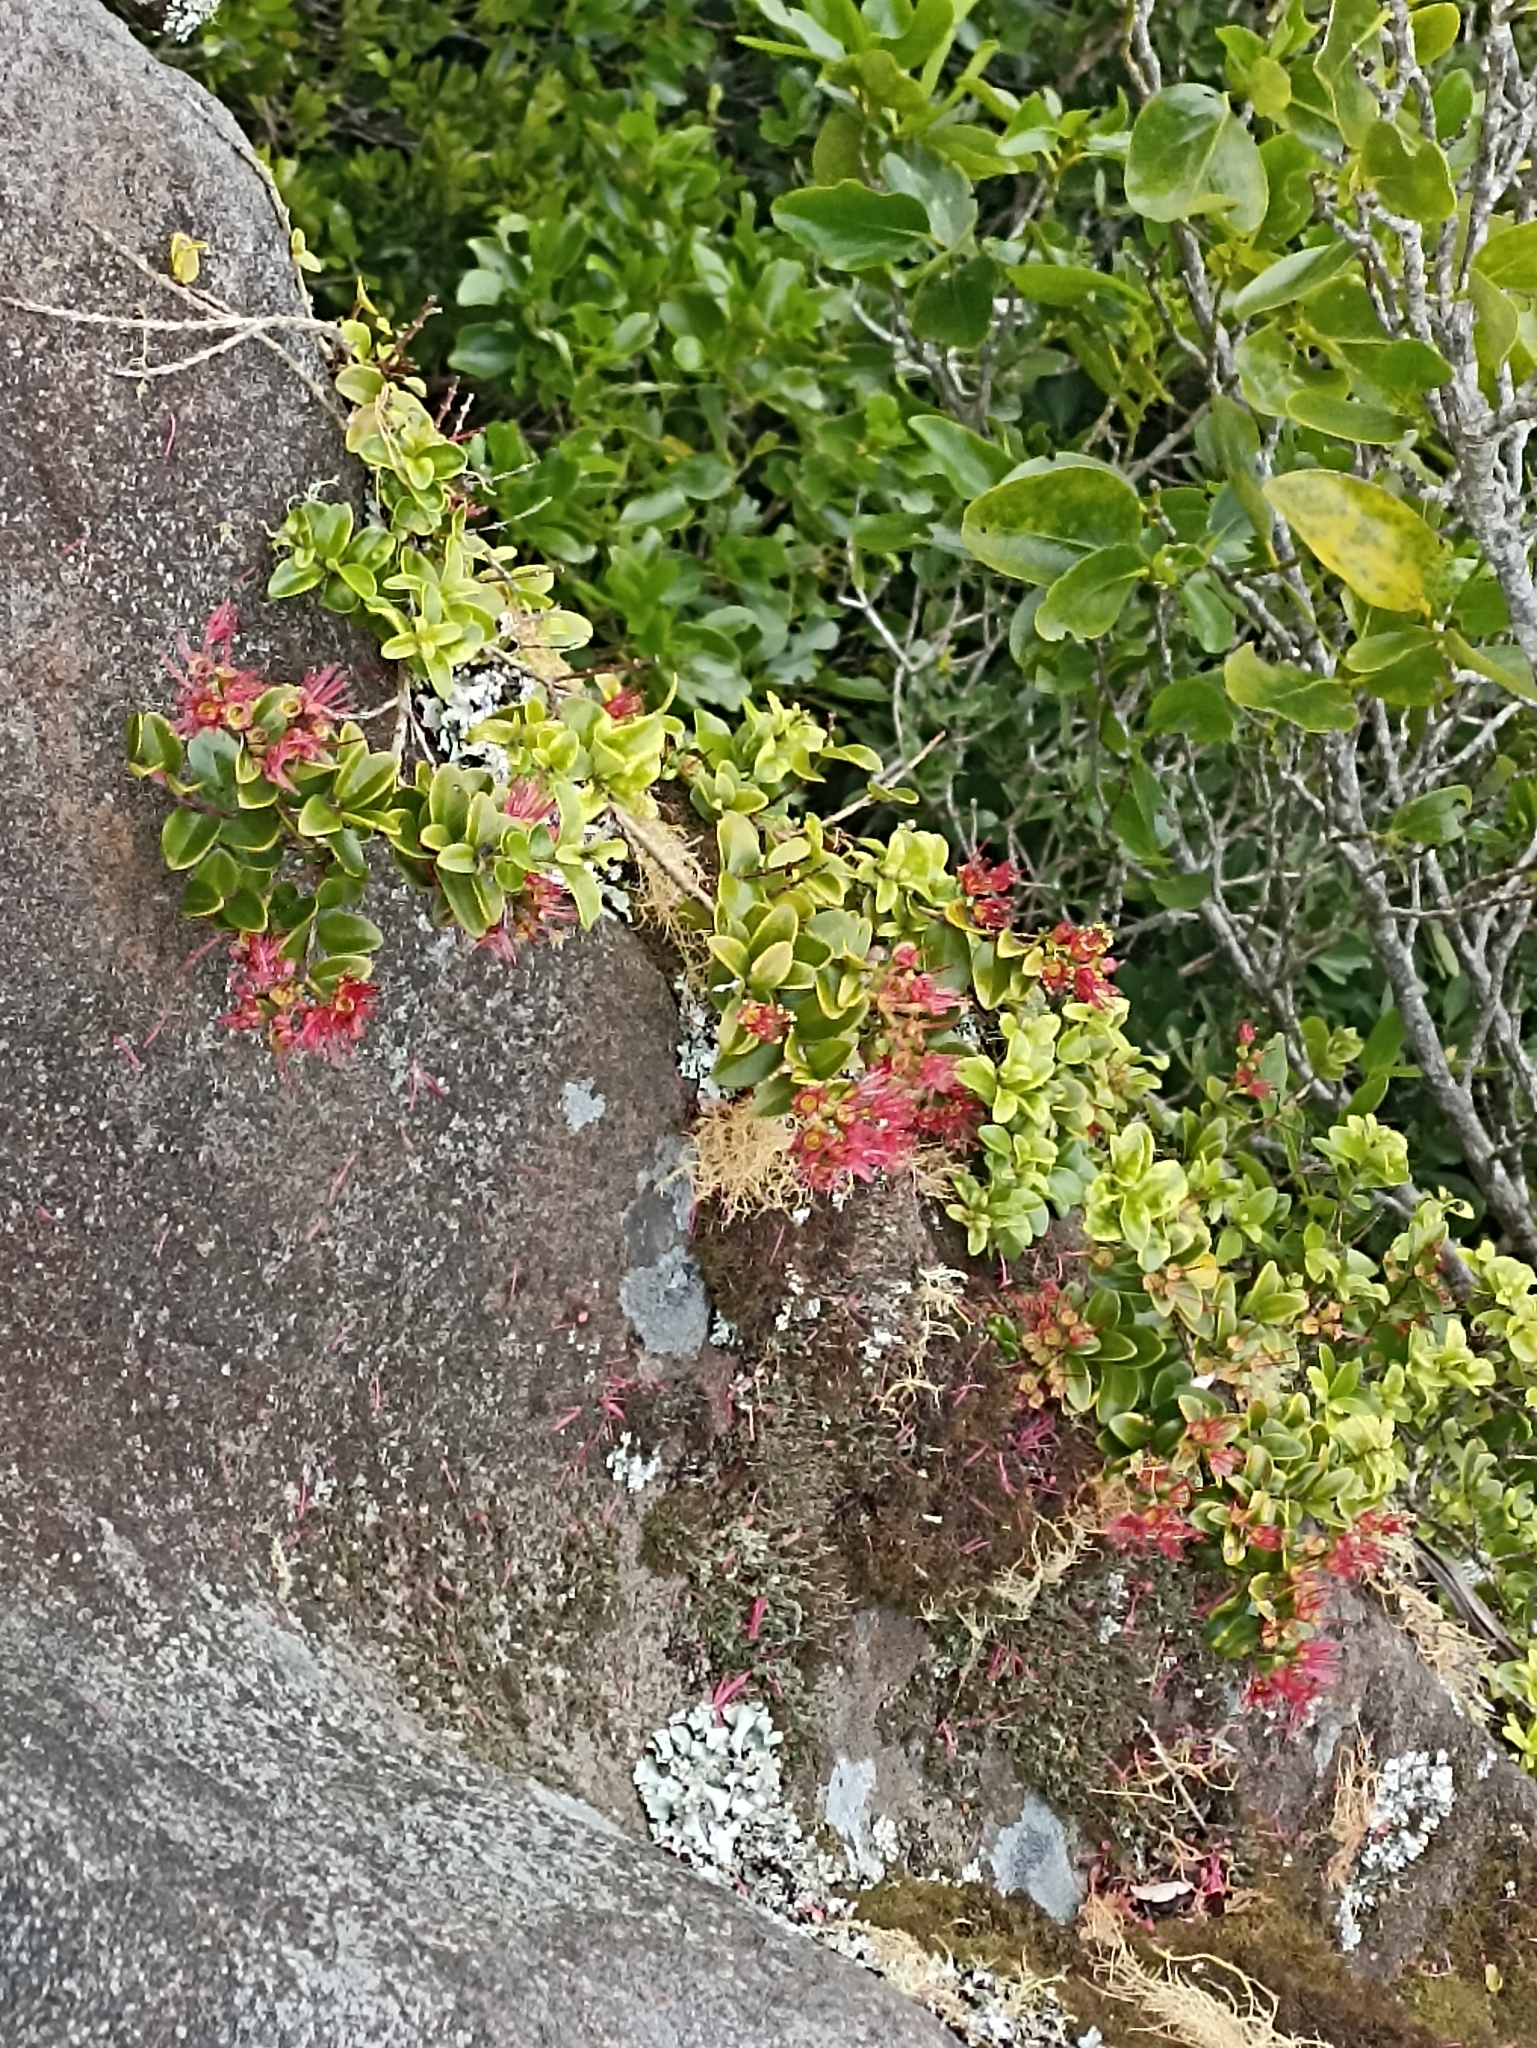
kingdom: Plantae
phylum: Tracheophyta
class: Magnoliopsida
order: Myrtales
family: Myrtaceae
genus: Metrosideros
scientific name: Metrosideros carminea
